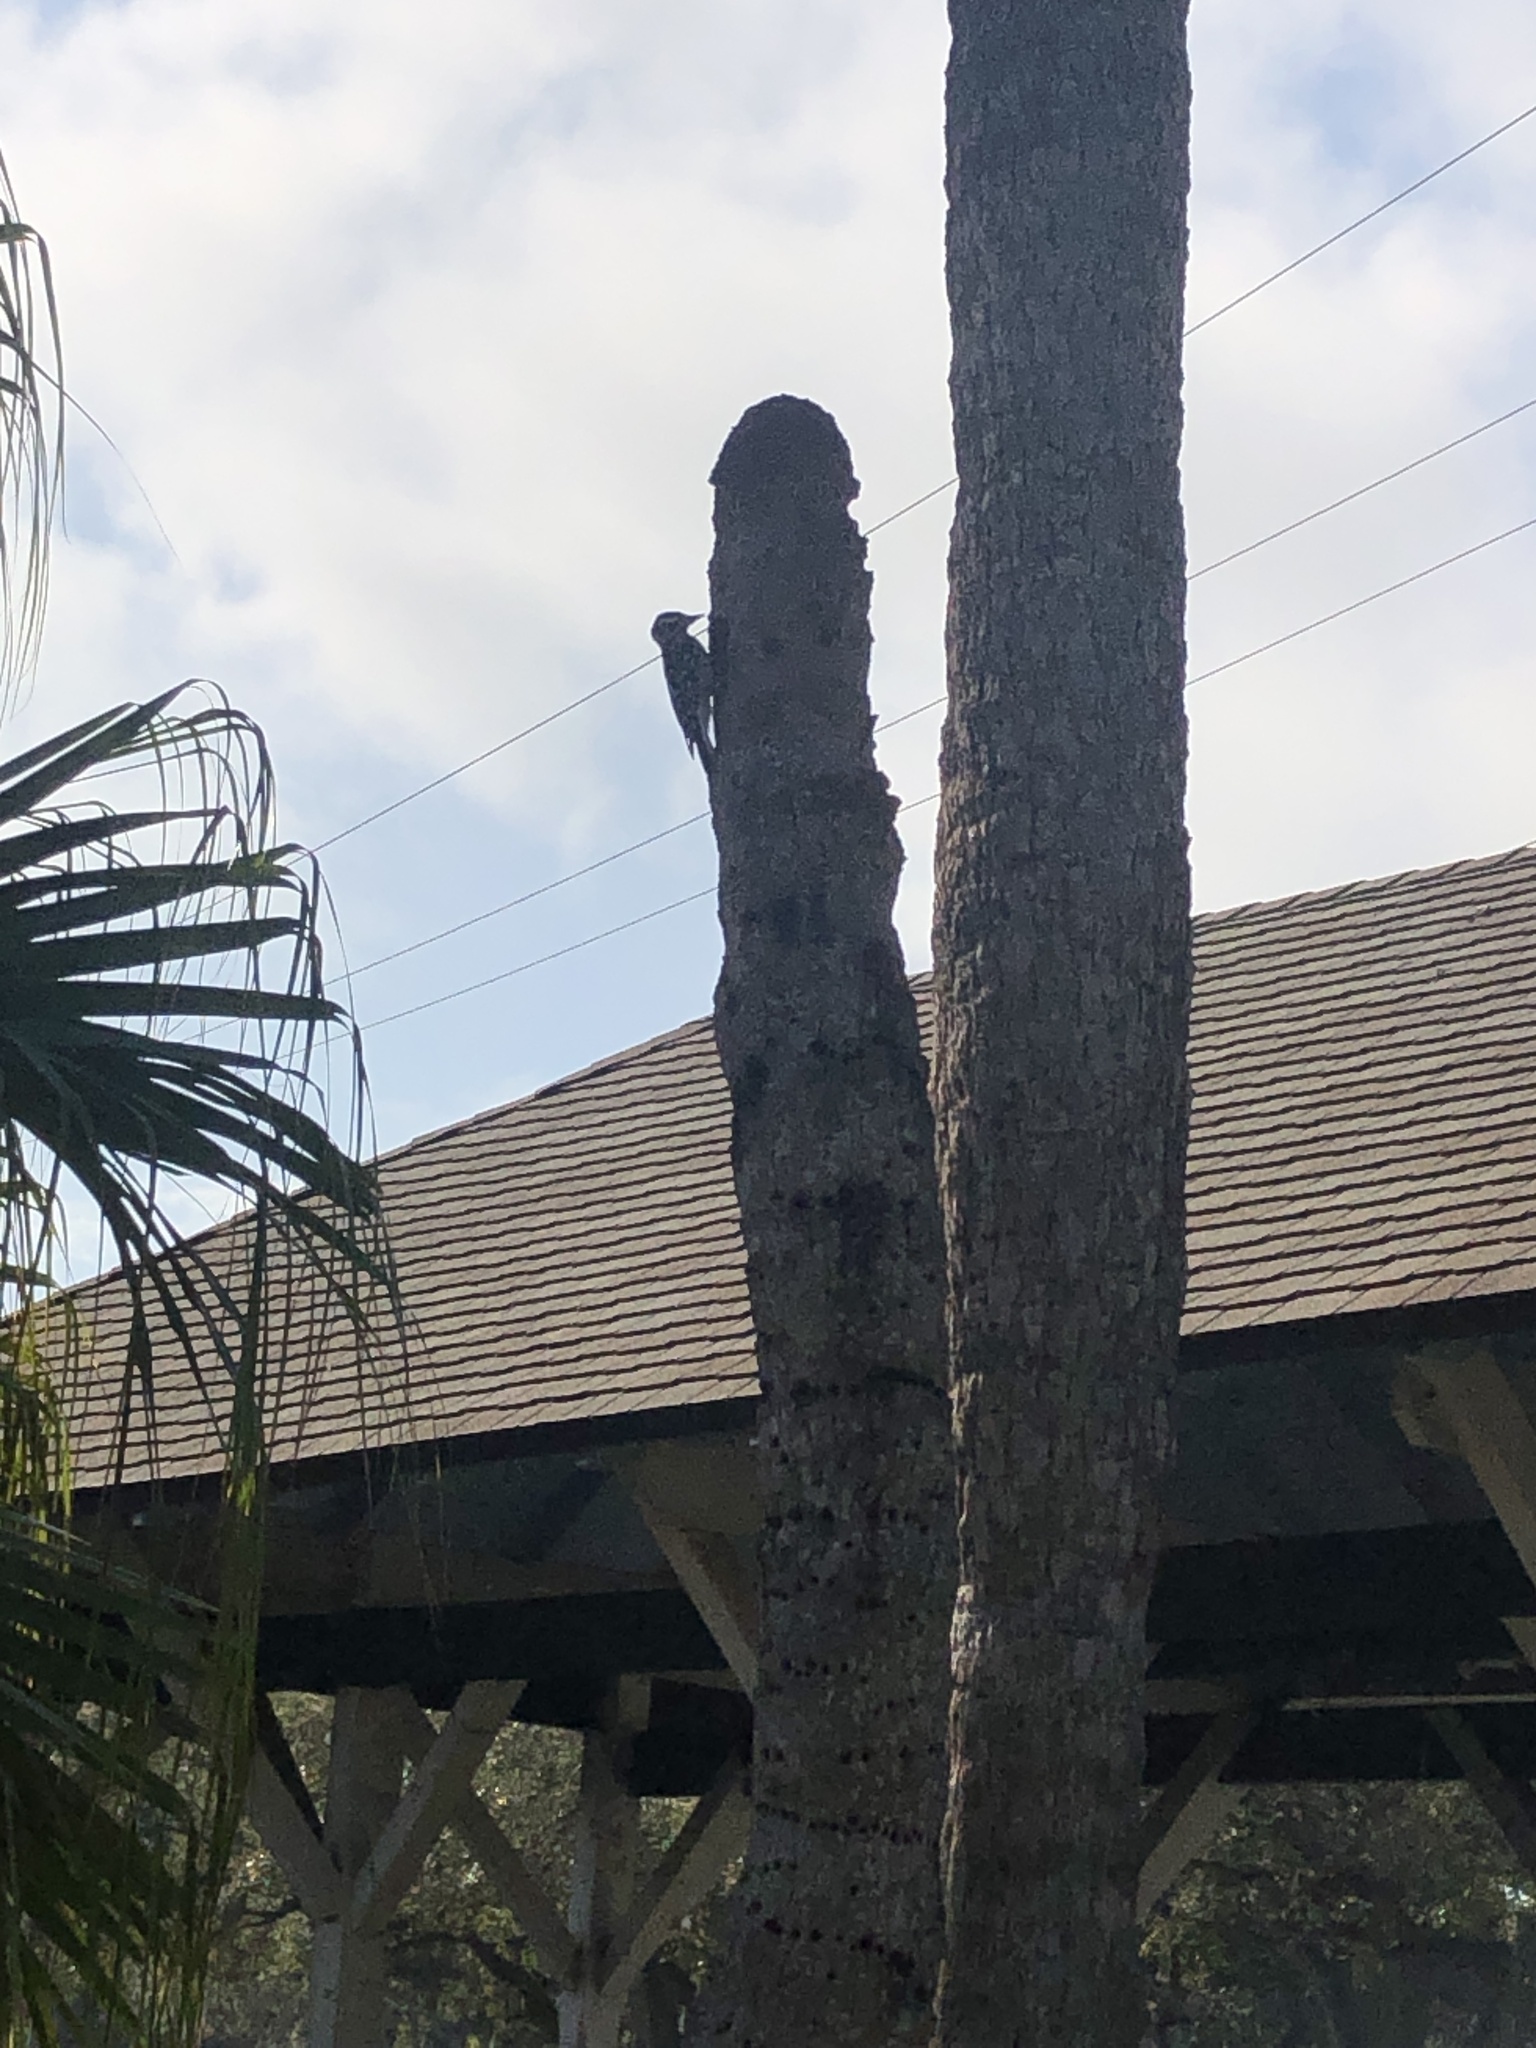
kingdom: Animalia
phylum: Chordata
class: Aves
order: Piciformes
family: Picidae
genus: Dryobates
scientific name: Dryobates pubescens
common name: Downy woodpecker
